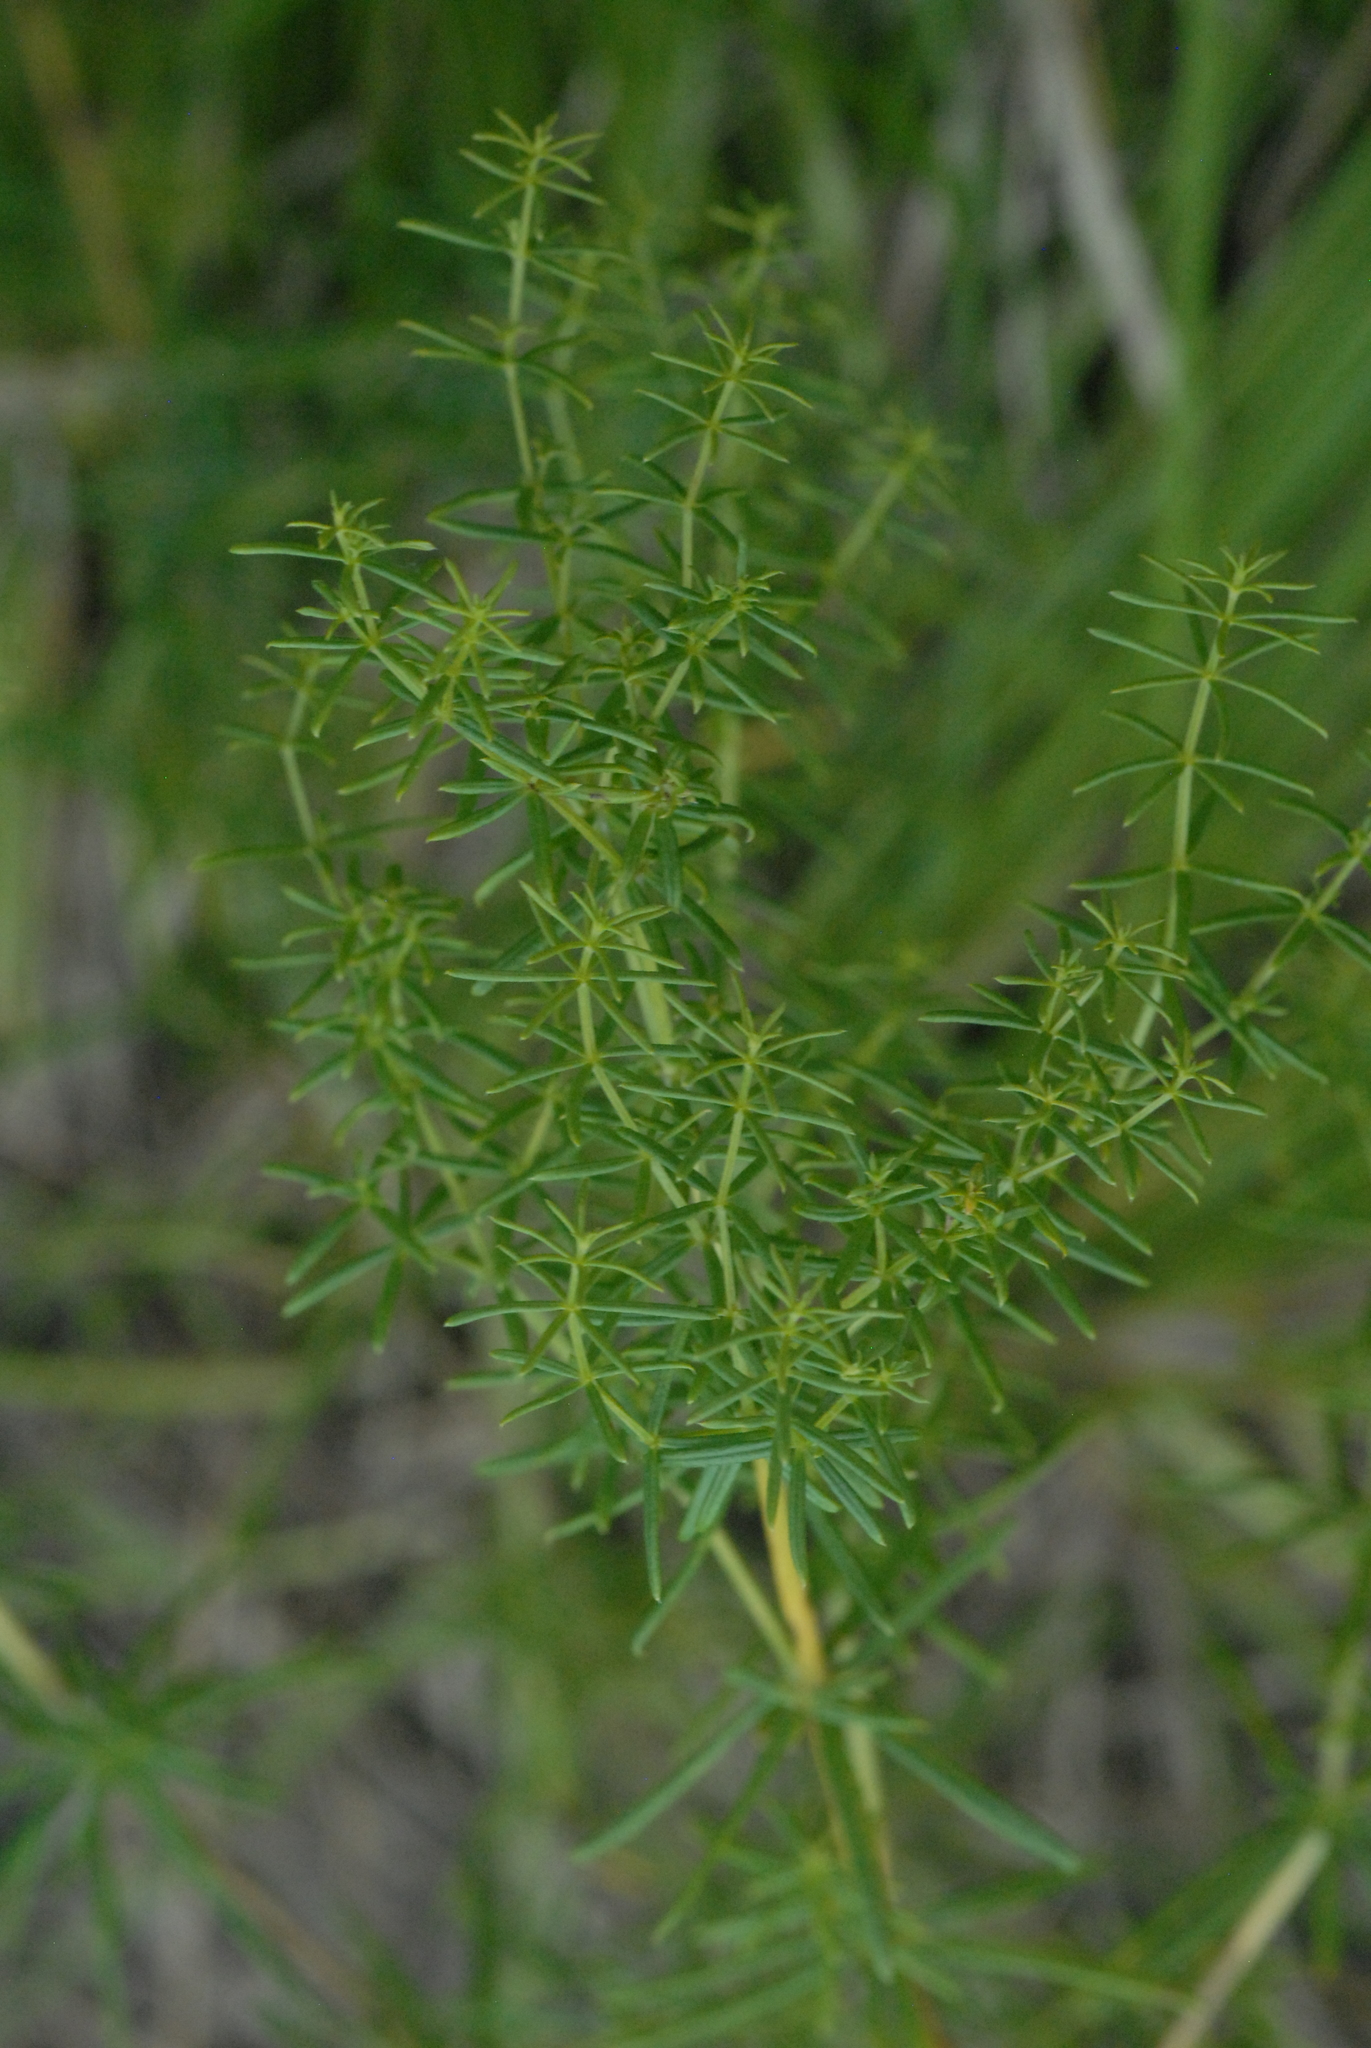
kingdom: Plantae
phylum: Tracheophyta
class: Magnoliopsida
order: Gentianales
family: Rubiaceae
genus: Galium
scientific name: Galium verum
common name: Lady's bedstraw
